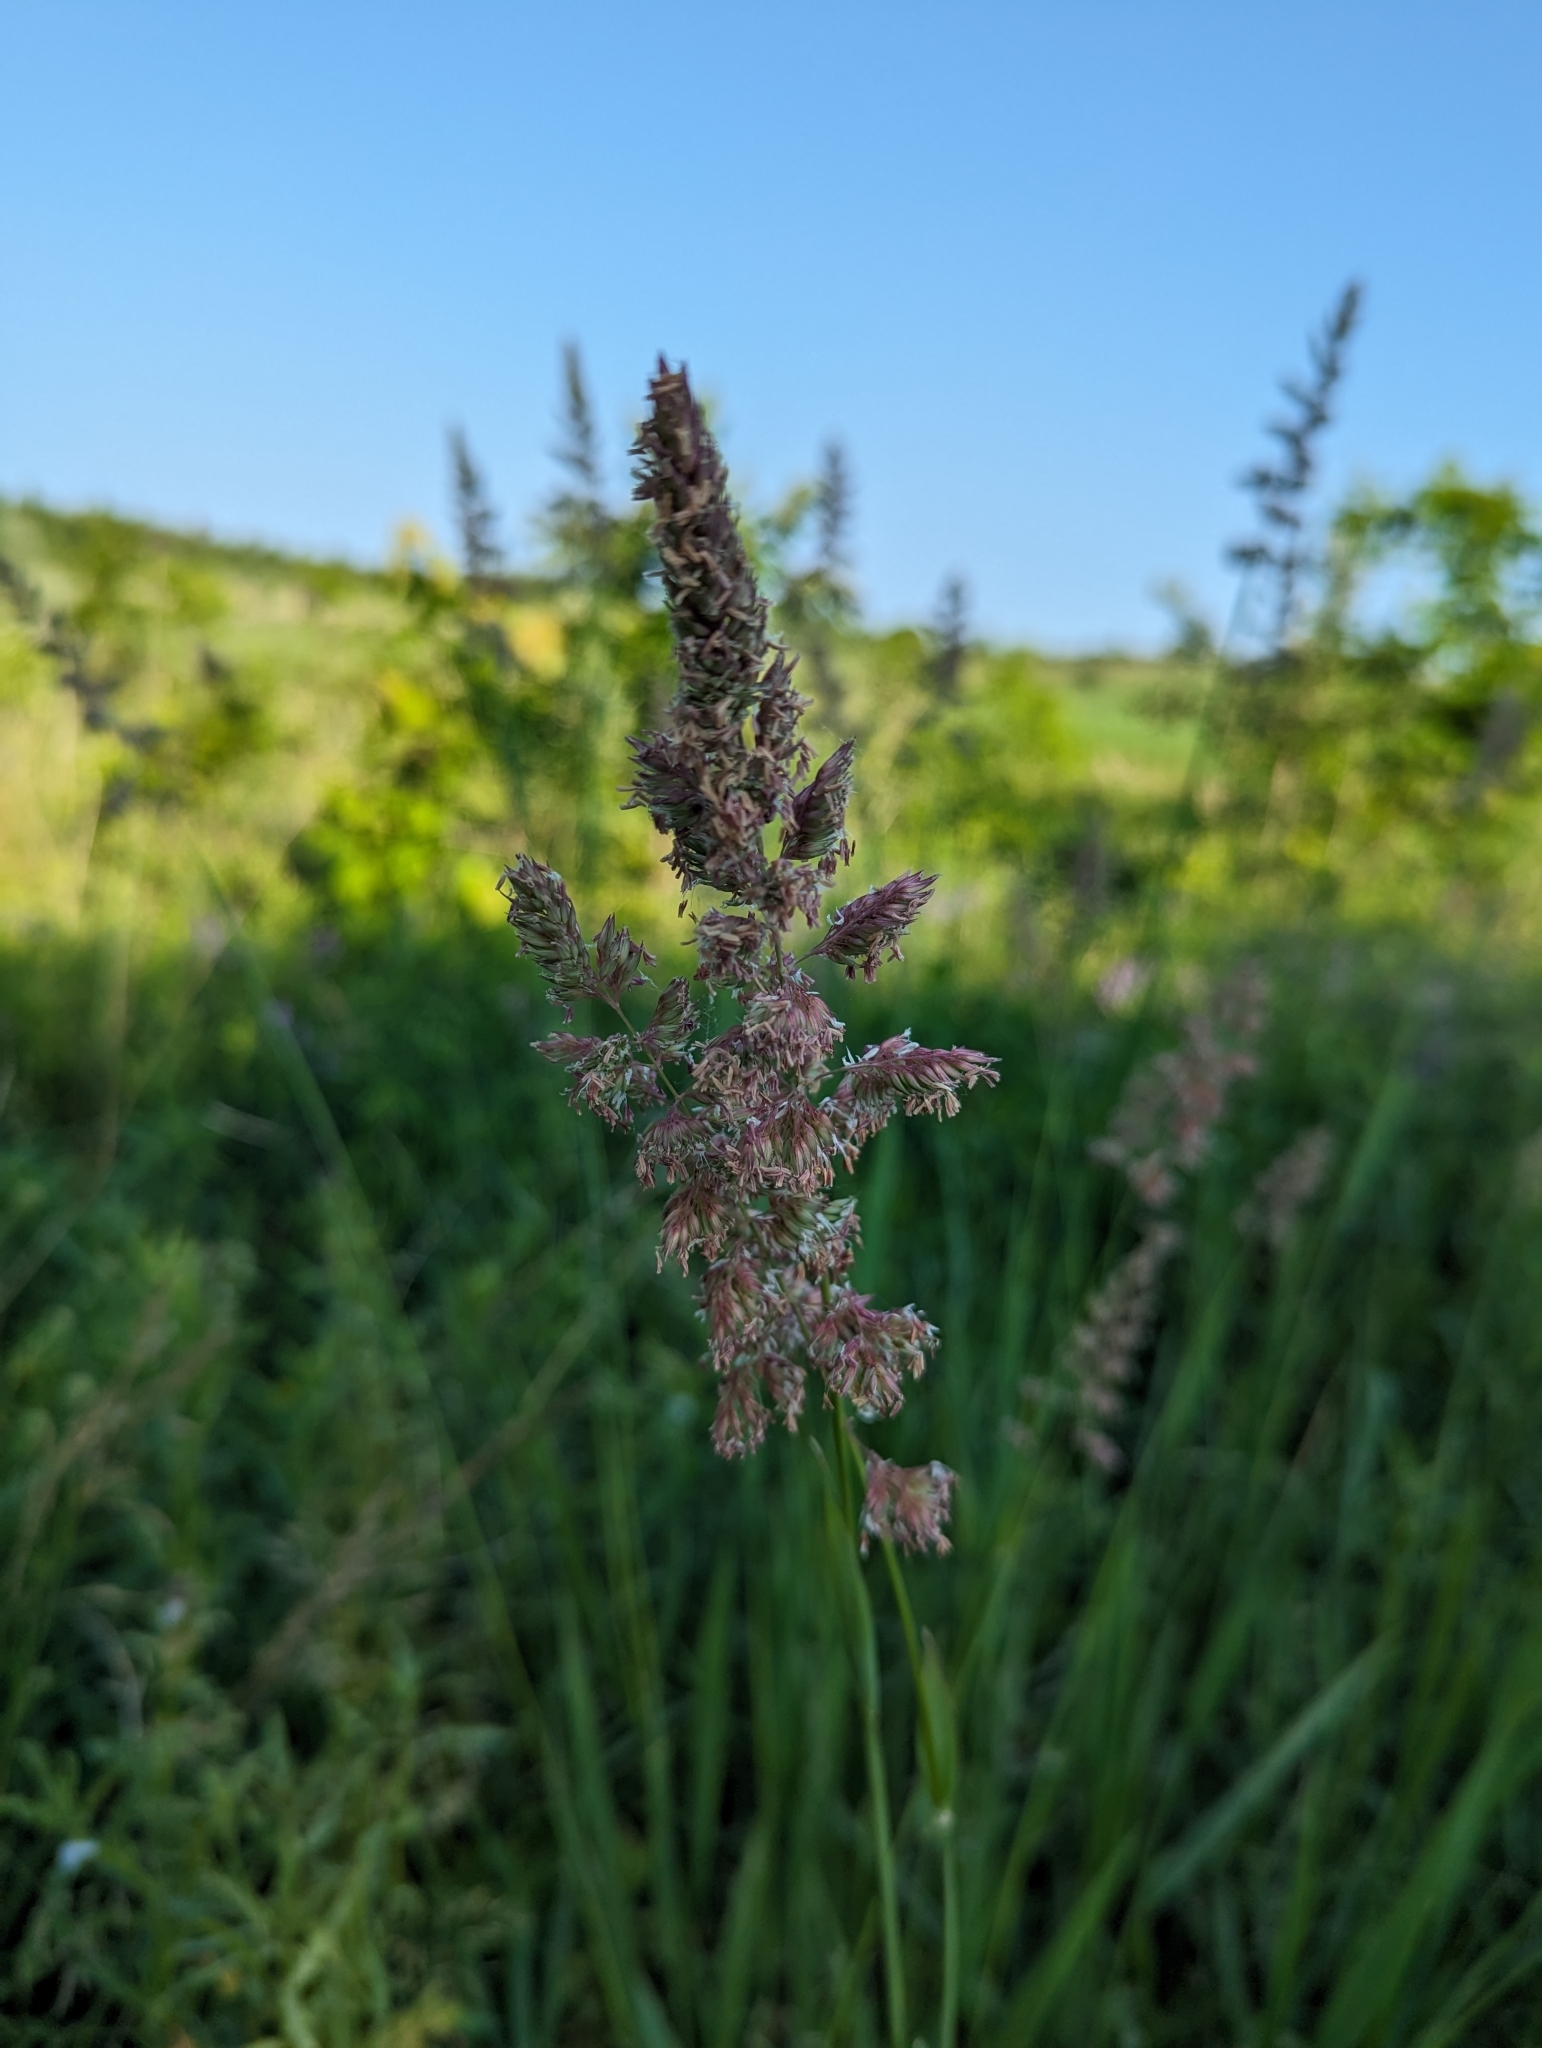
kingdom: Plantae
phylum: Tracheophyta
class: Liliopsida
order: Poales
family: Poaceae
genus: Phalaris
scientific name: Phalaris arundinacea
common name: Reed canary-grass
